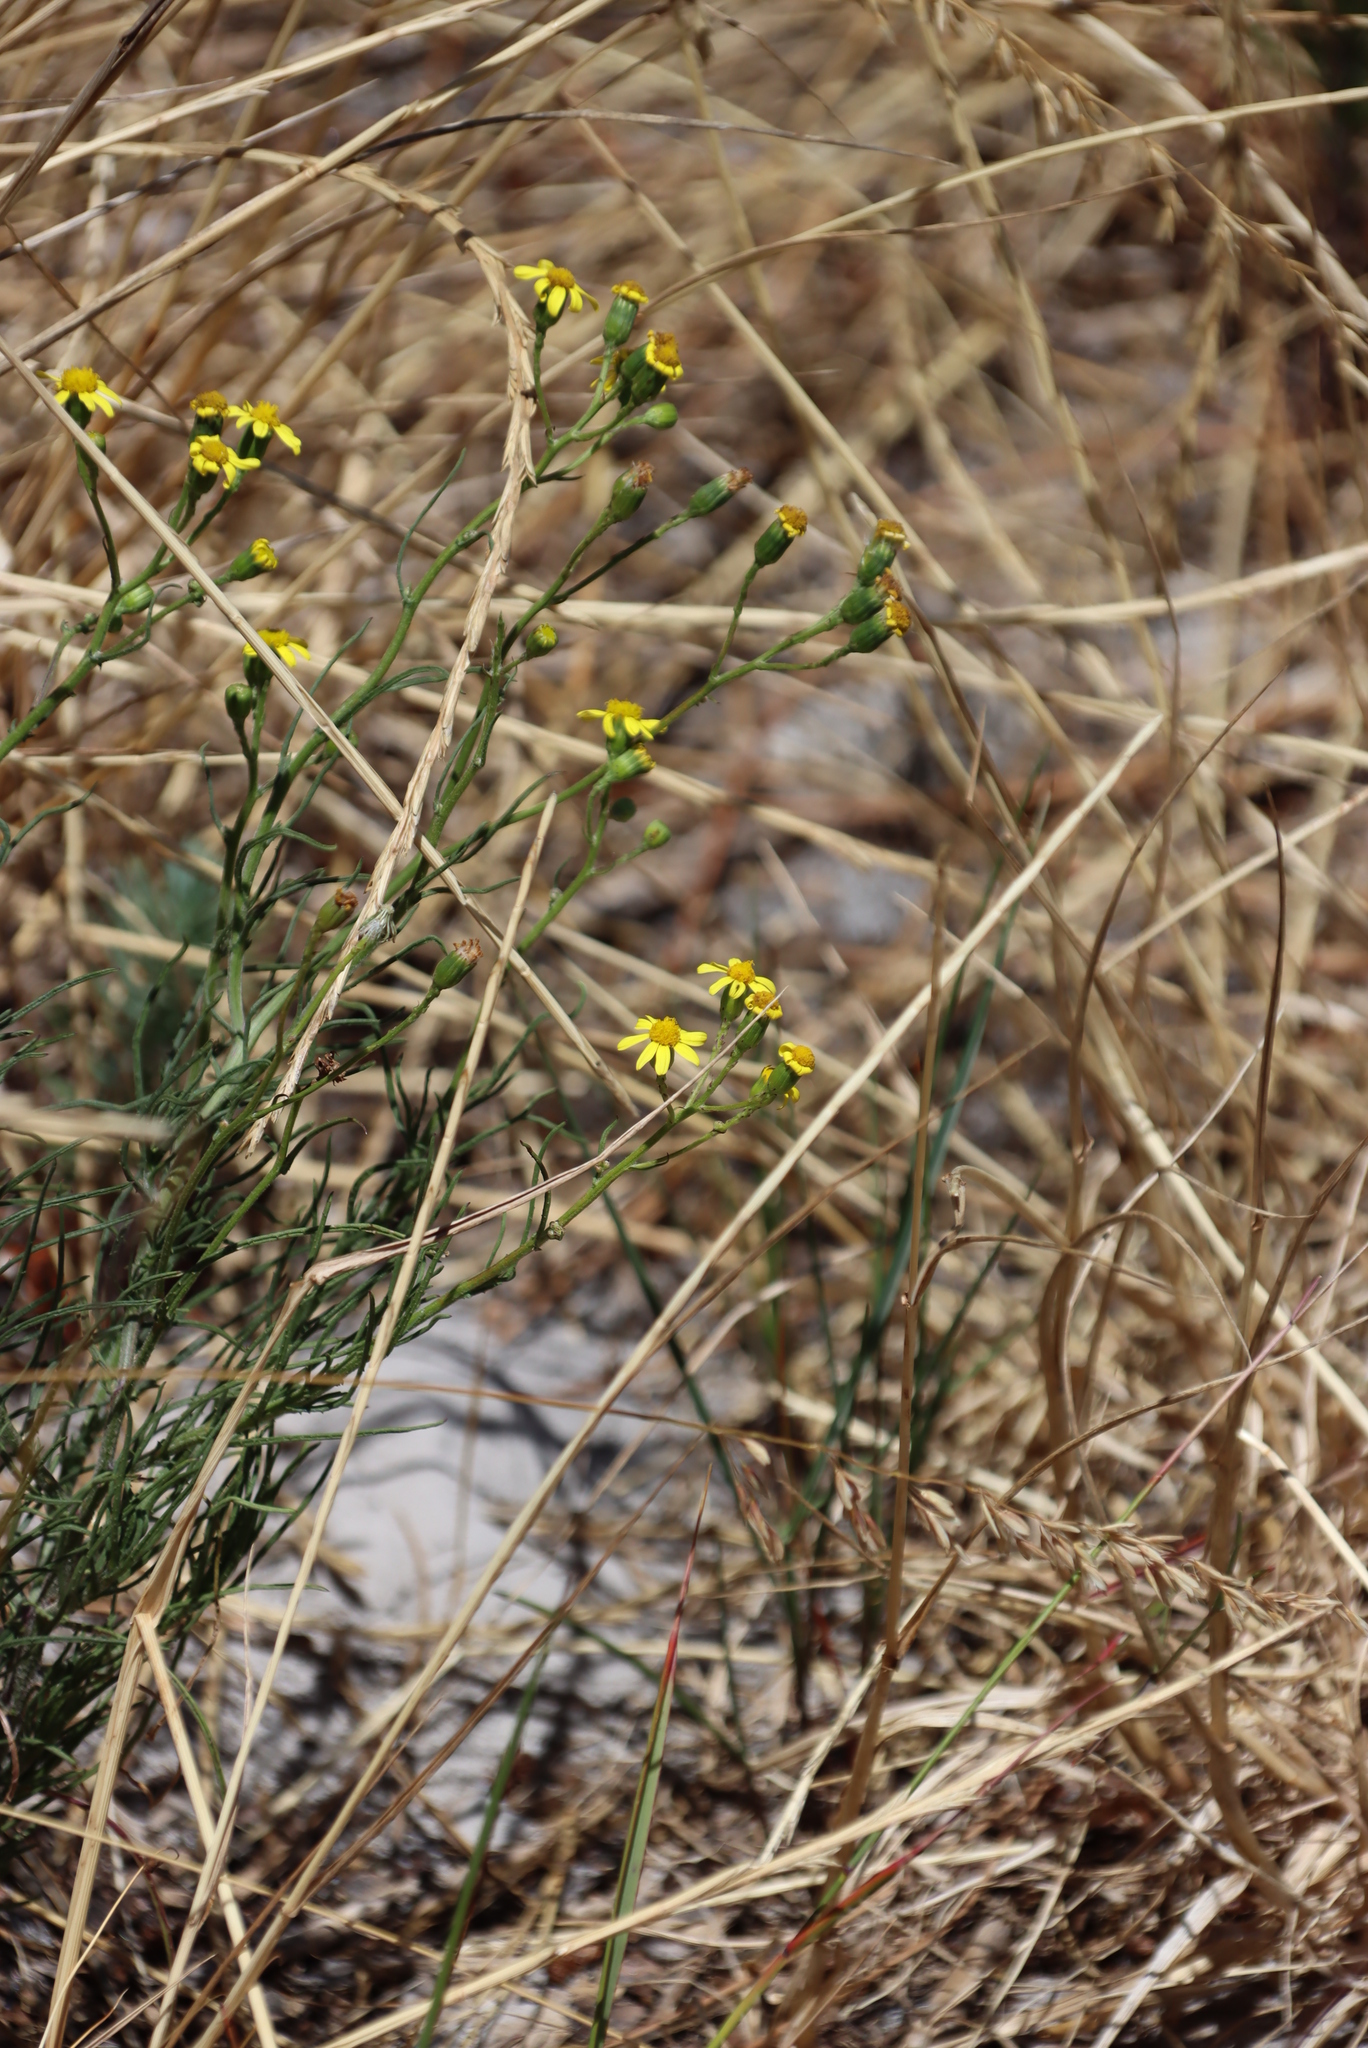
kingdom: Plantae
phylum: Tracheophyta
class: Magnoliopsida
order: Asterales
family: Asteraceae
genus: Senecio
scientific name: Senecio burchellii
